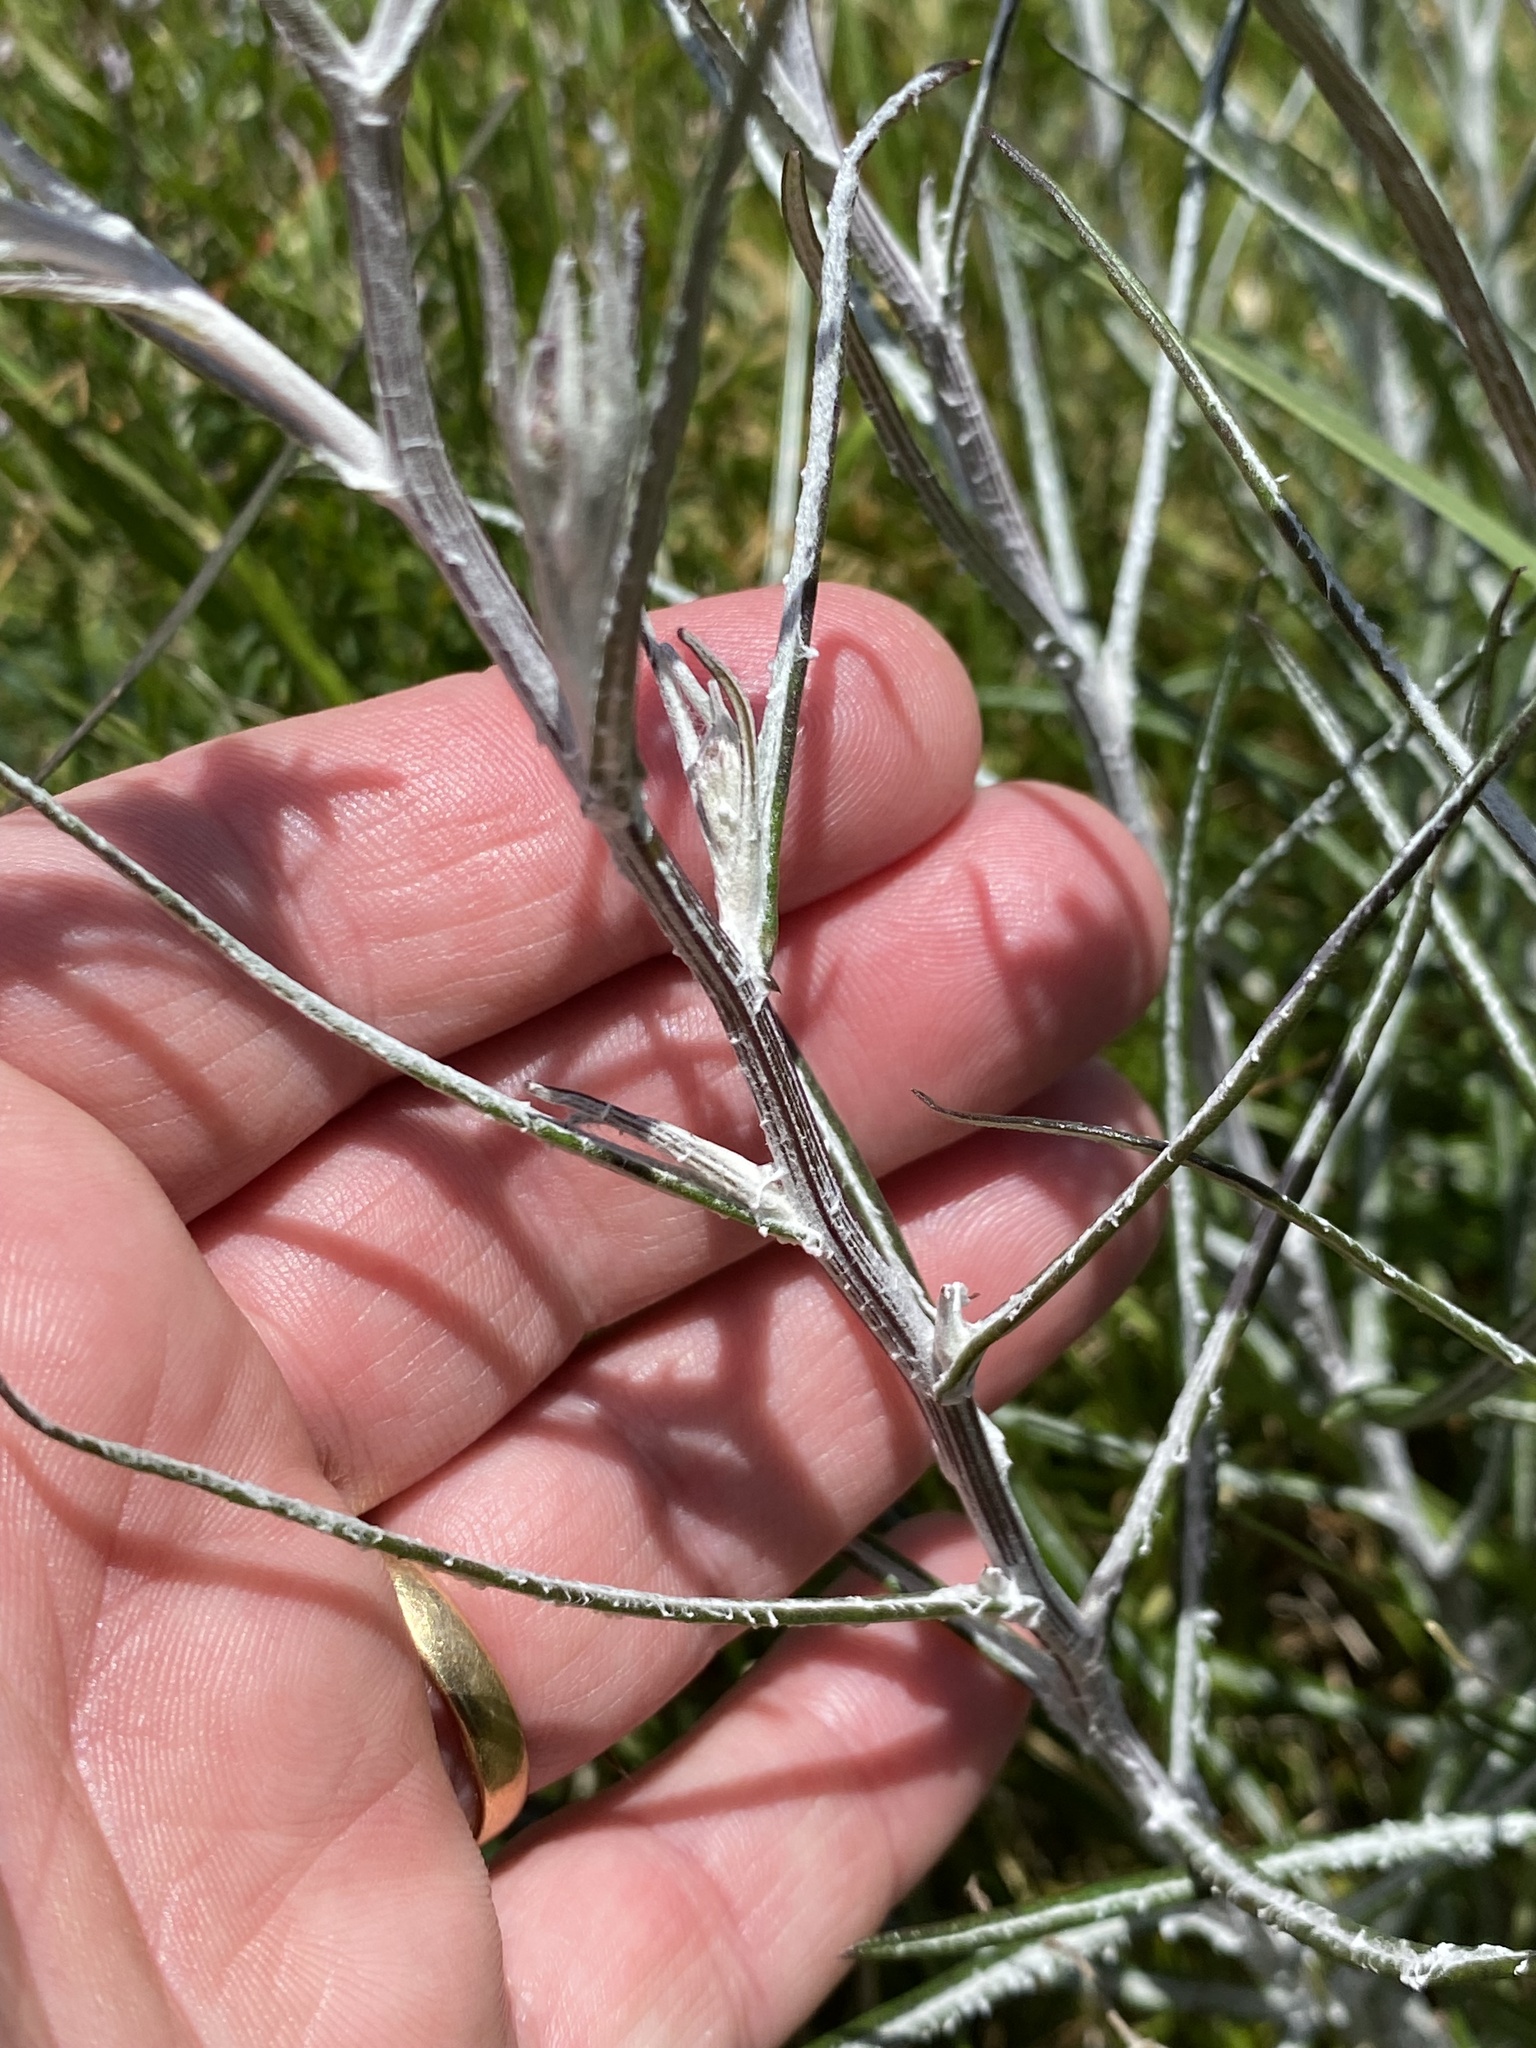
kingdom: Plantae
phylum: Tracheophyta
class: Magnoliopsida
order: Asterales
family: Asteraceae
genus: Senecio
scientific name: Senecio quadridentatus
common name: Cotton fireweed
